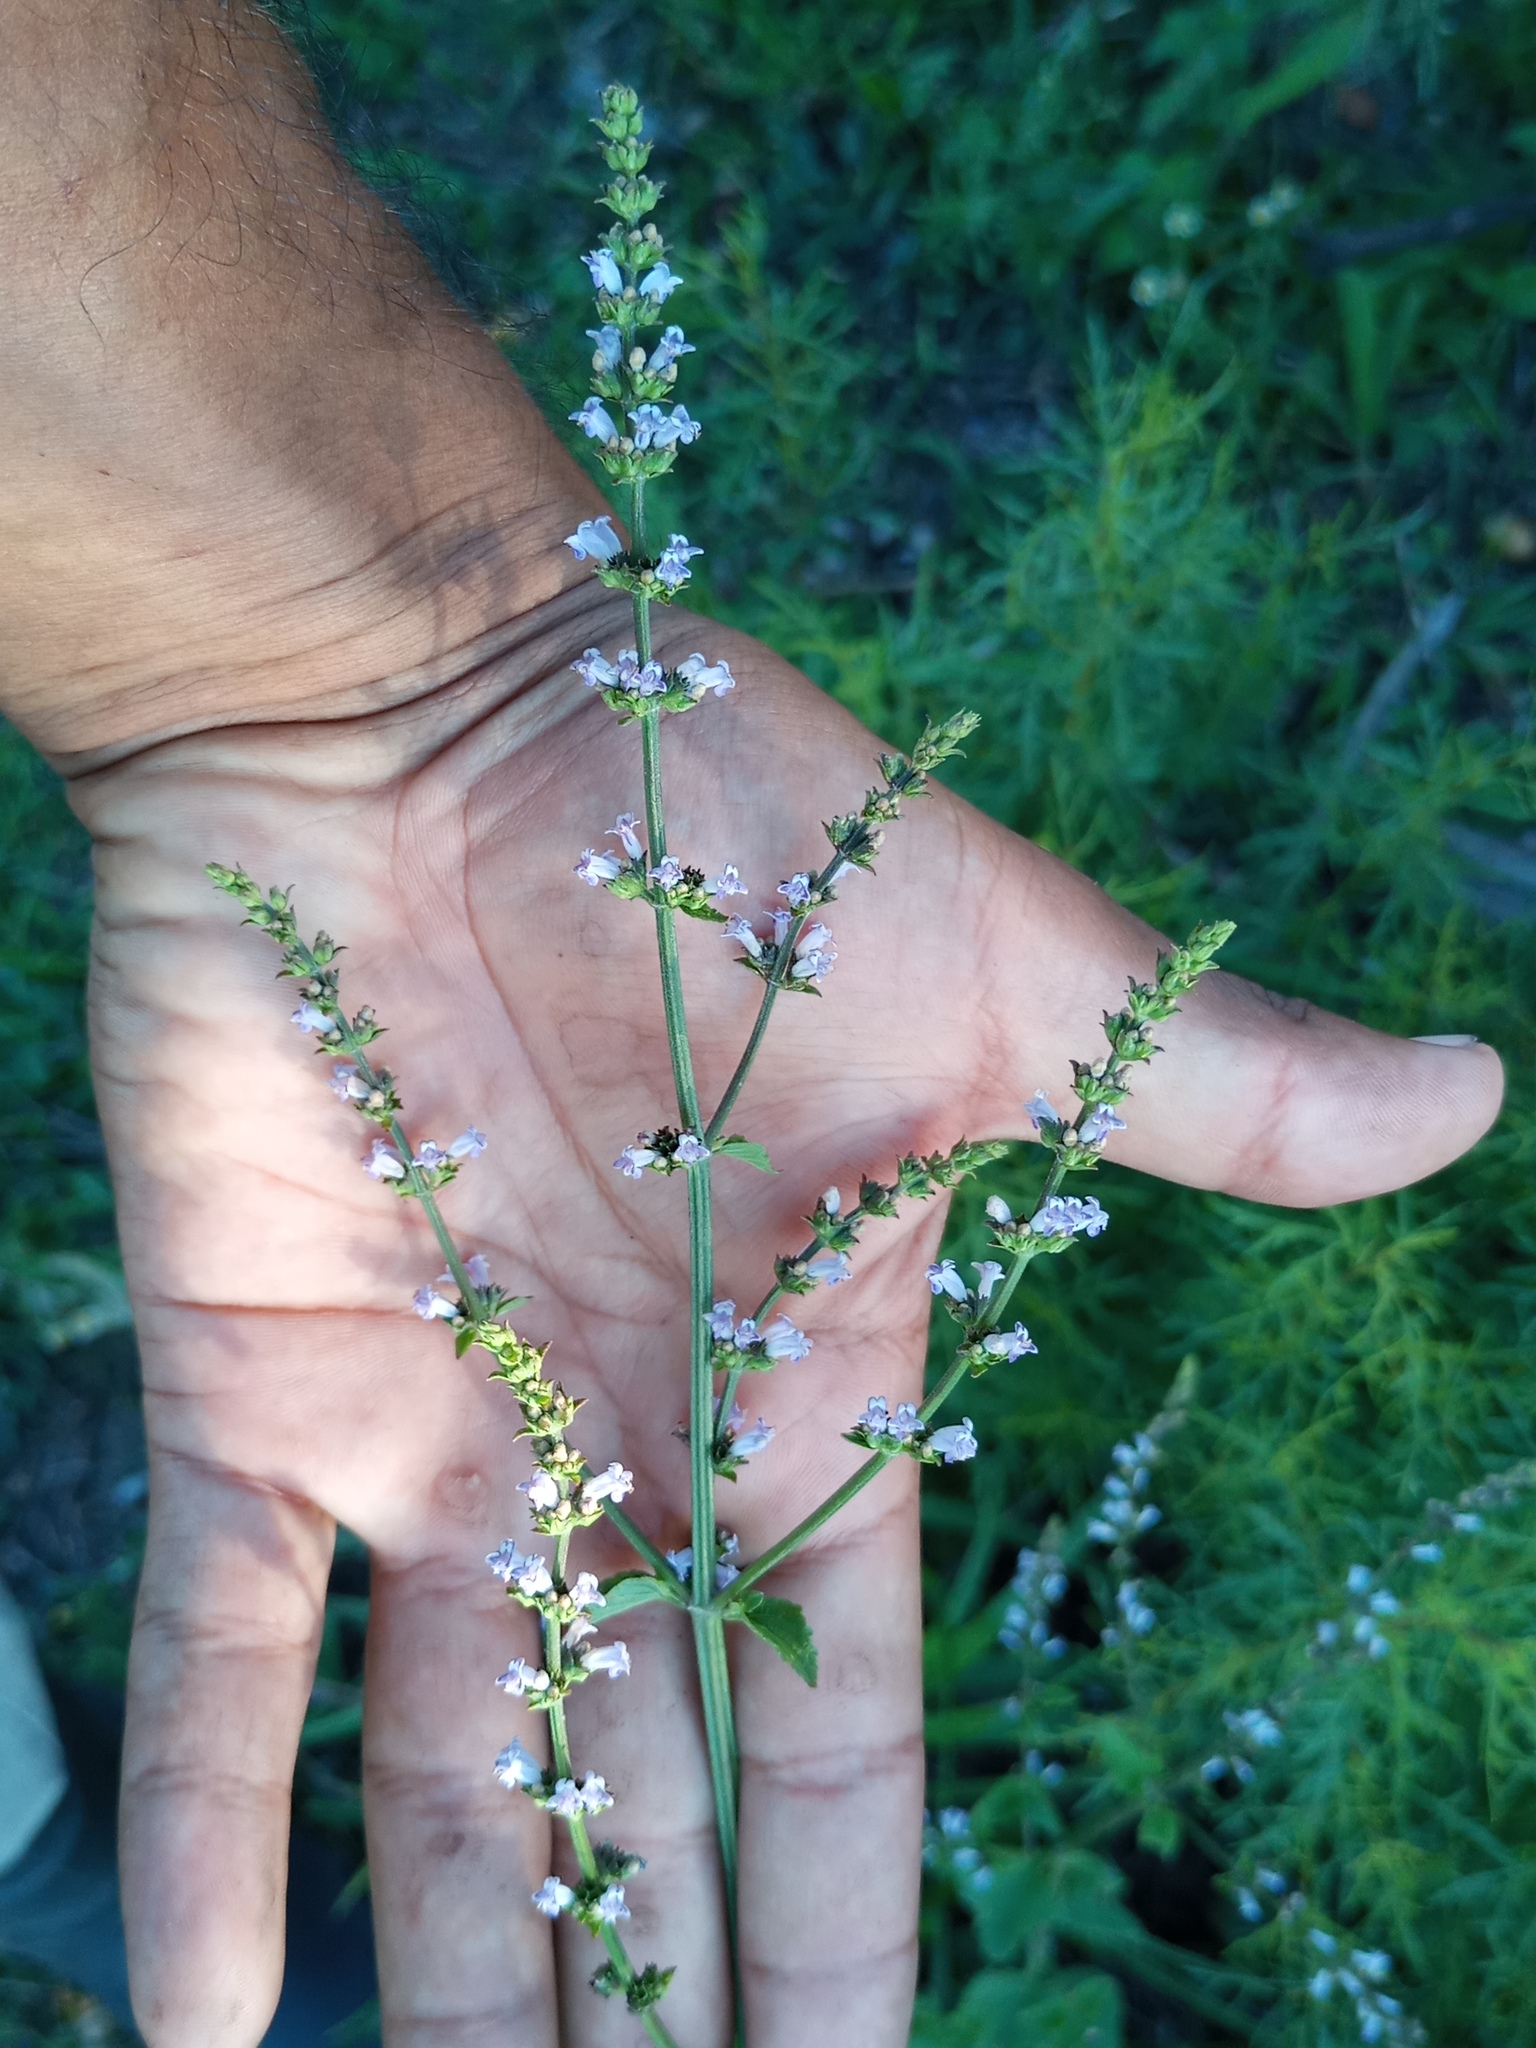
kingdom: Plantae
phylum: Tracheophyta
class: Magnoliopsida
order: Lamiales
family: Lamiaceae
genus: Cantinoa
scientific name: Cantinoa mutabilis
